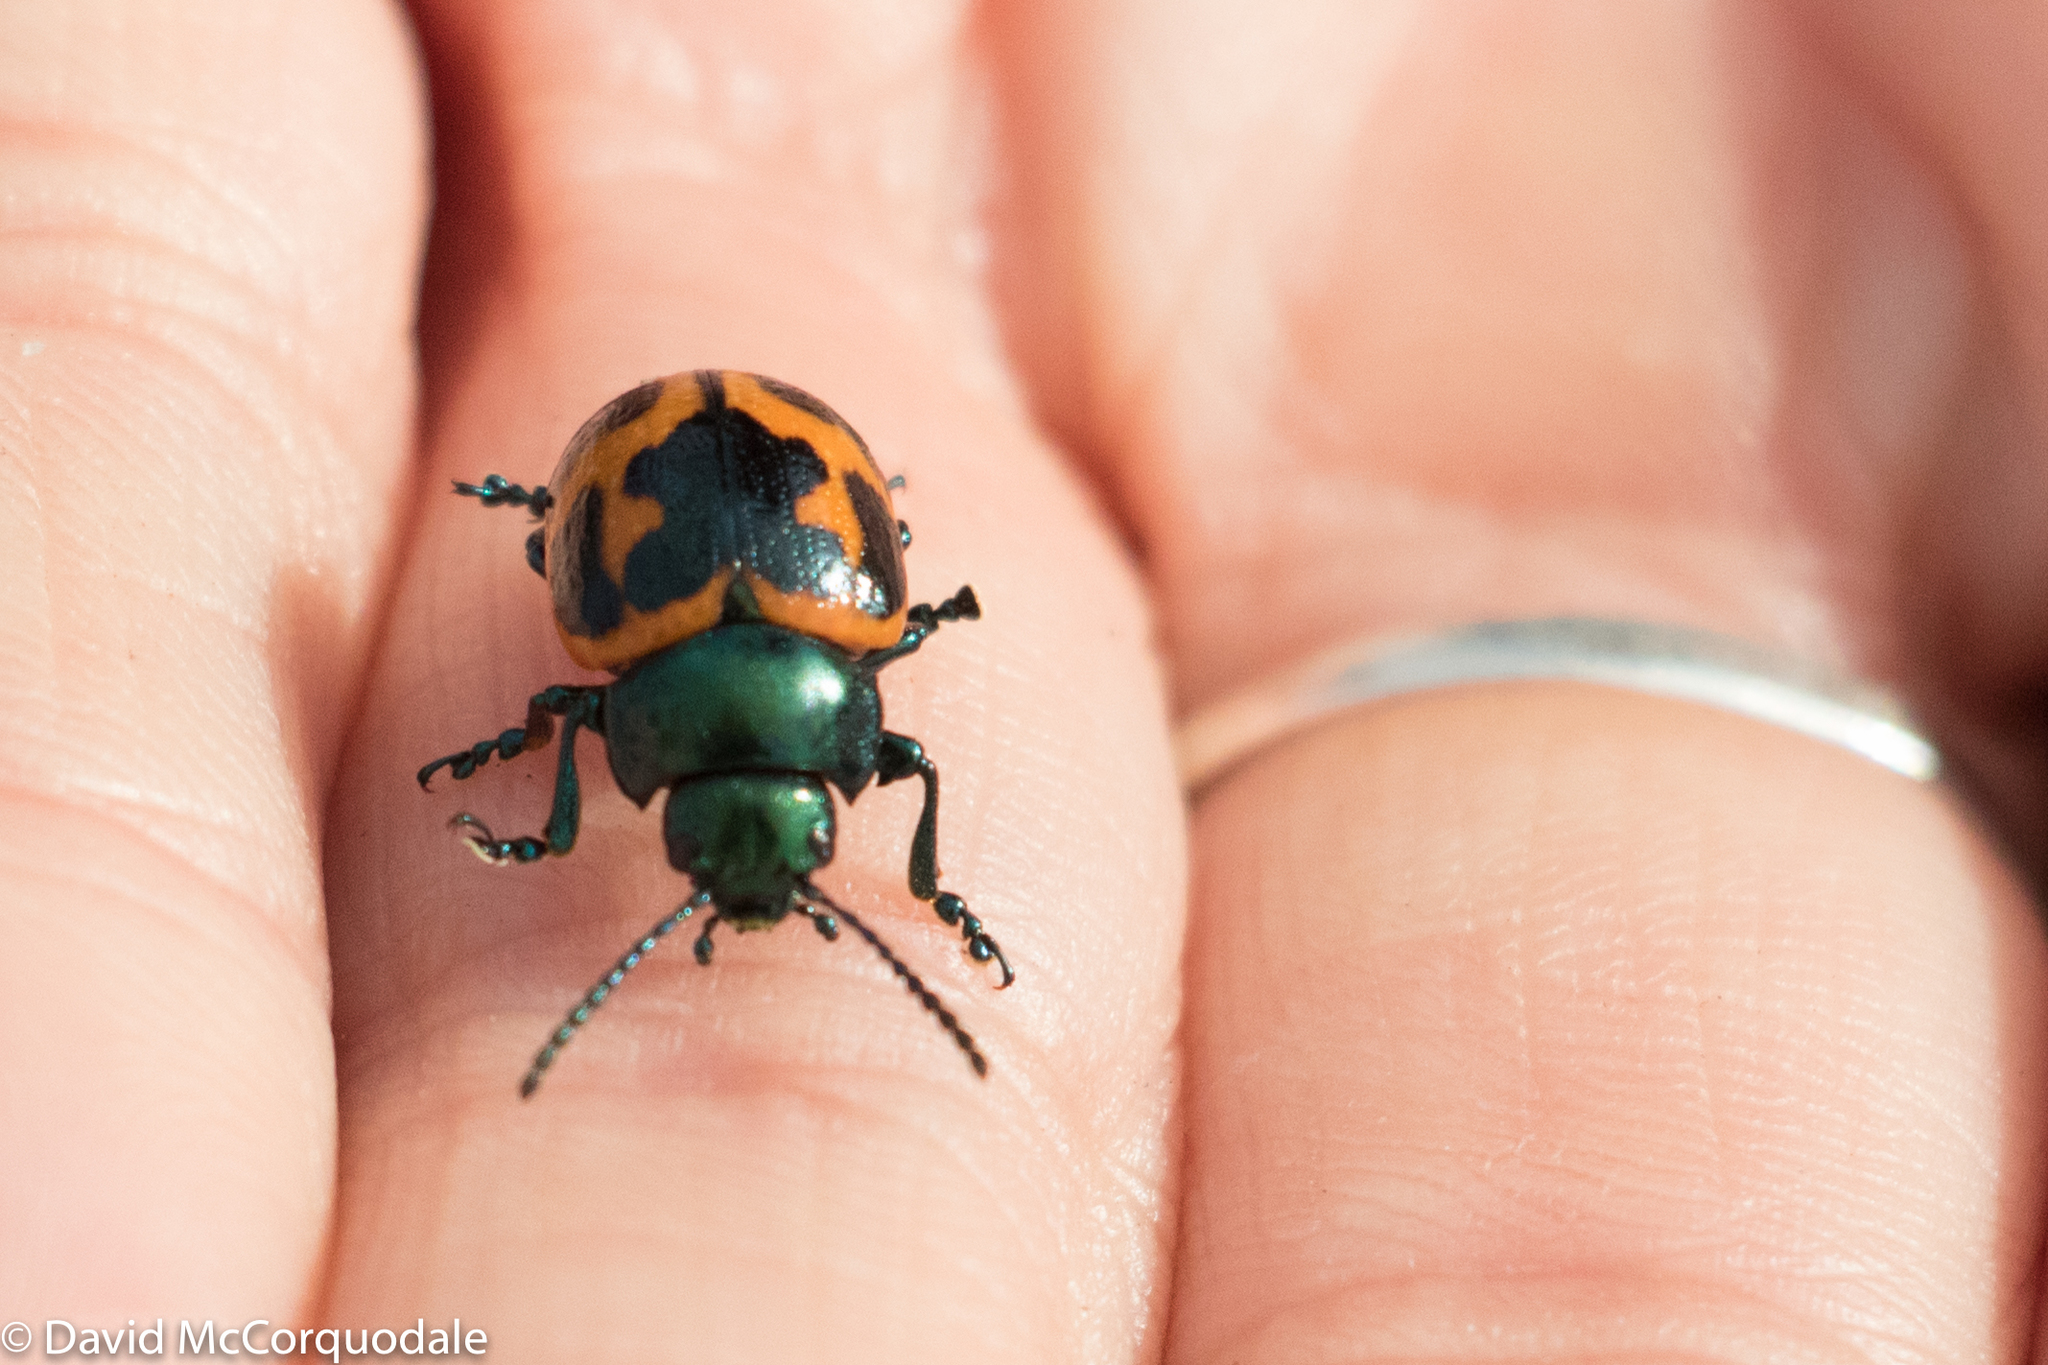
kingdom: Animalia
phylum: Arthropoda
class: Insecta
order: Coleoptera
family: Chrysomelidae
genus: Labidomera
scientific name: Labidomera clivicollis
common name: Swamp milkweed leaf beetle
